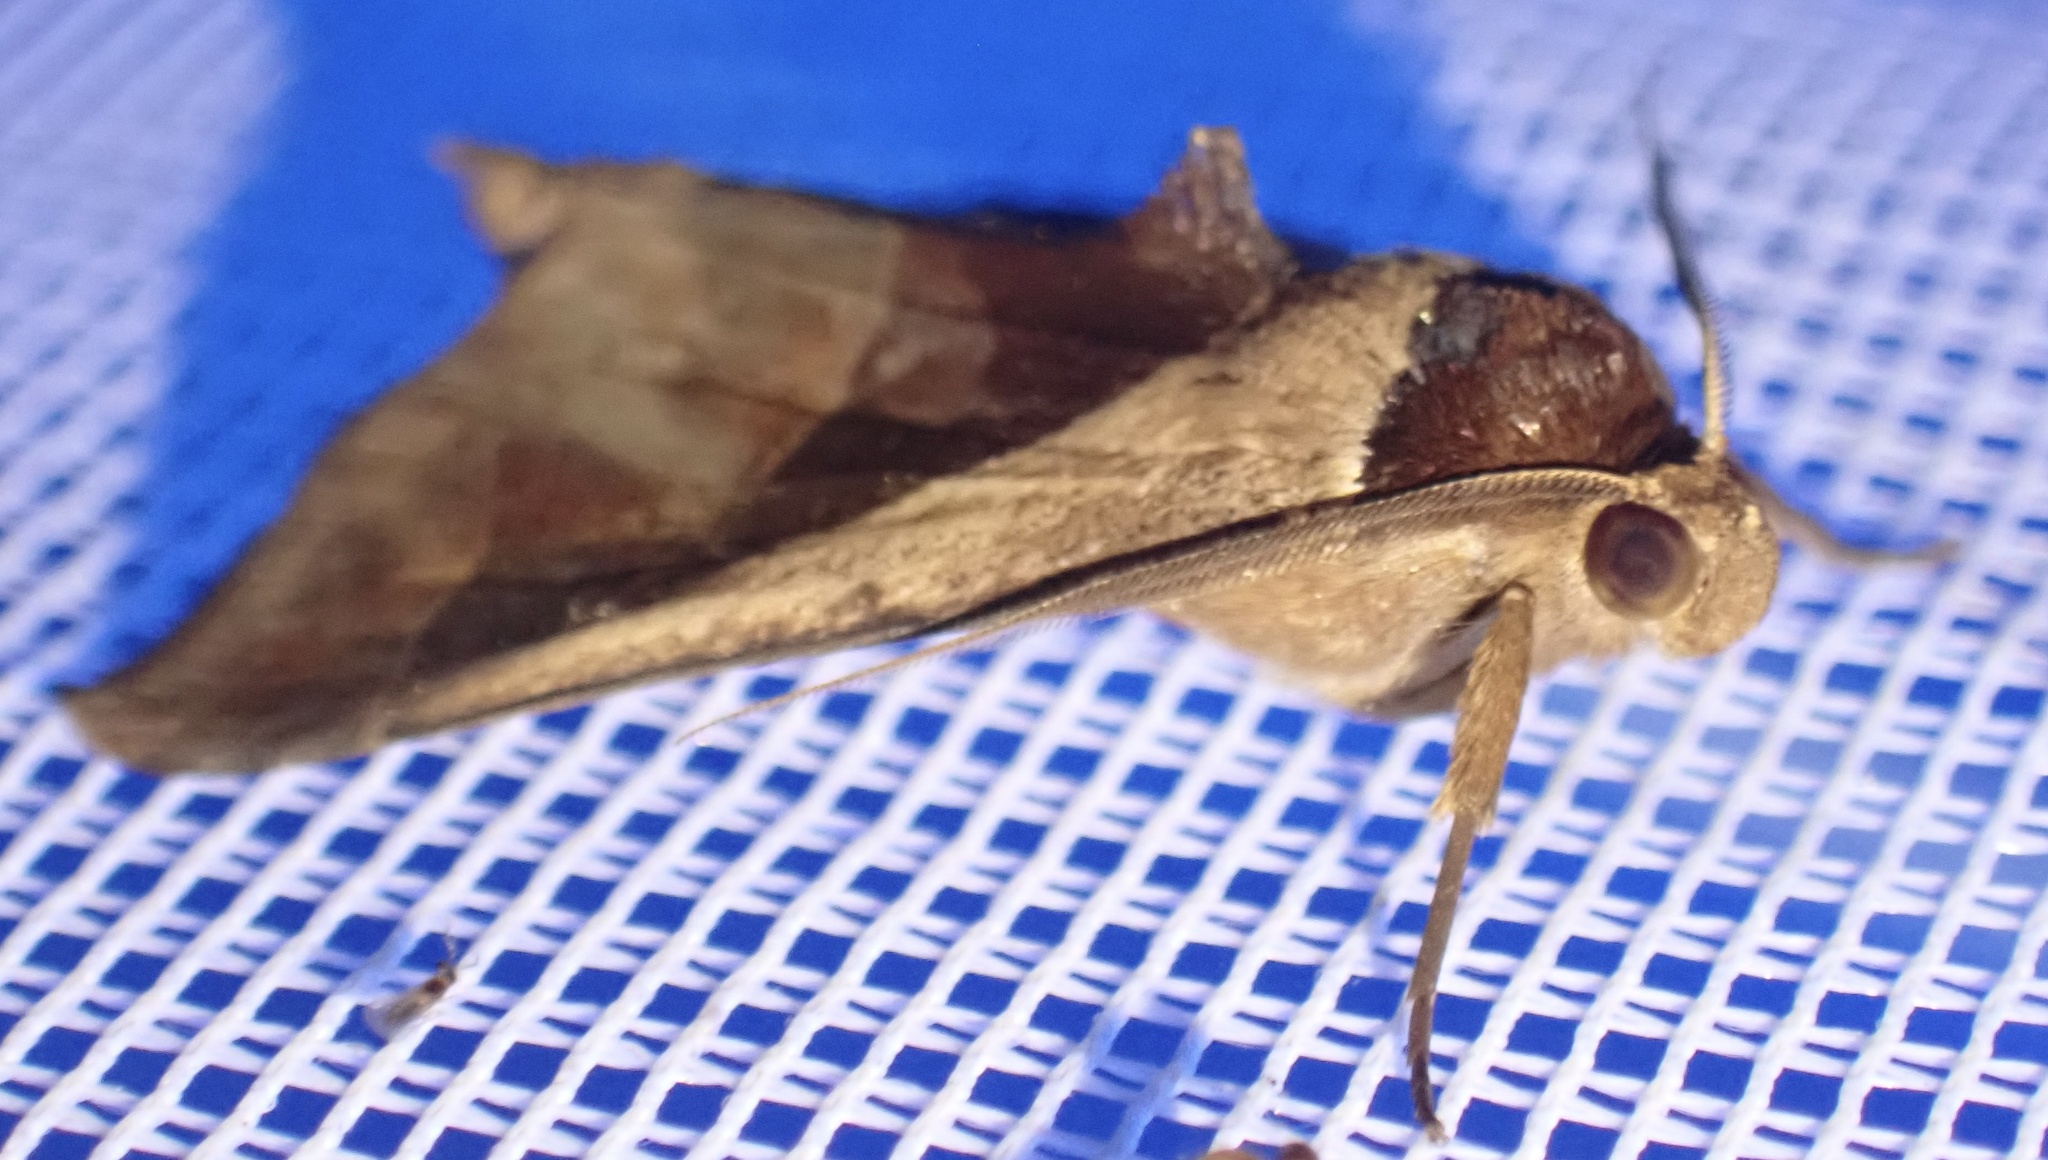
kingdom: Animalia
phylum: Arthropoda
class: Insecta
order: Lepidoptera
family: Erebidae
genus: Anoba
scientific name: Anoba biangulata
